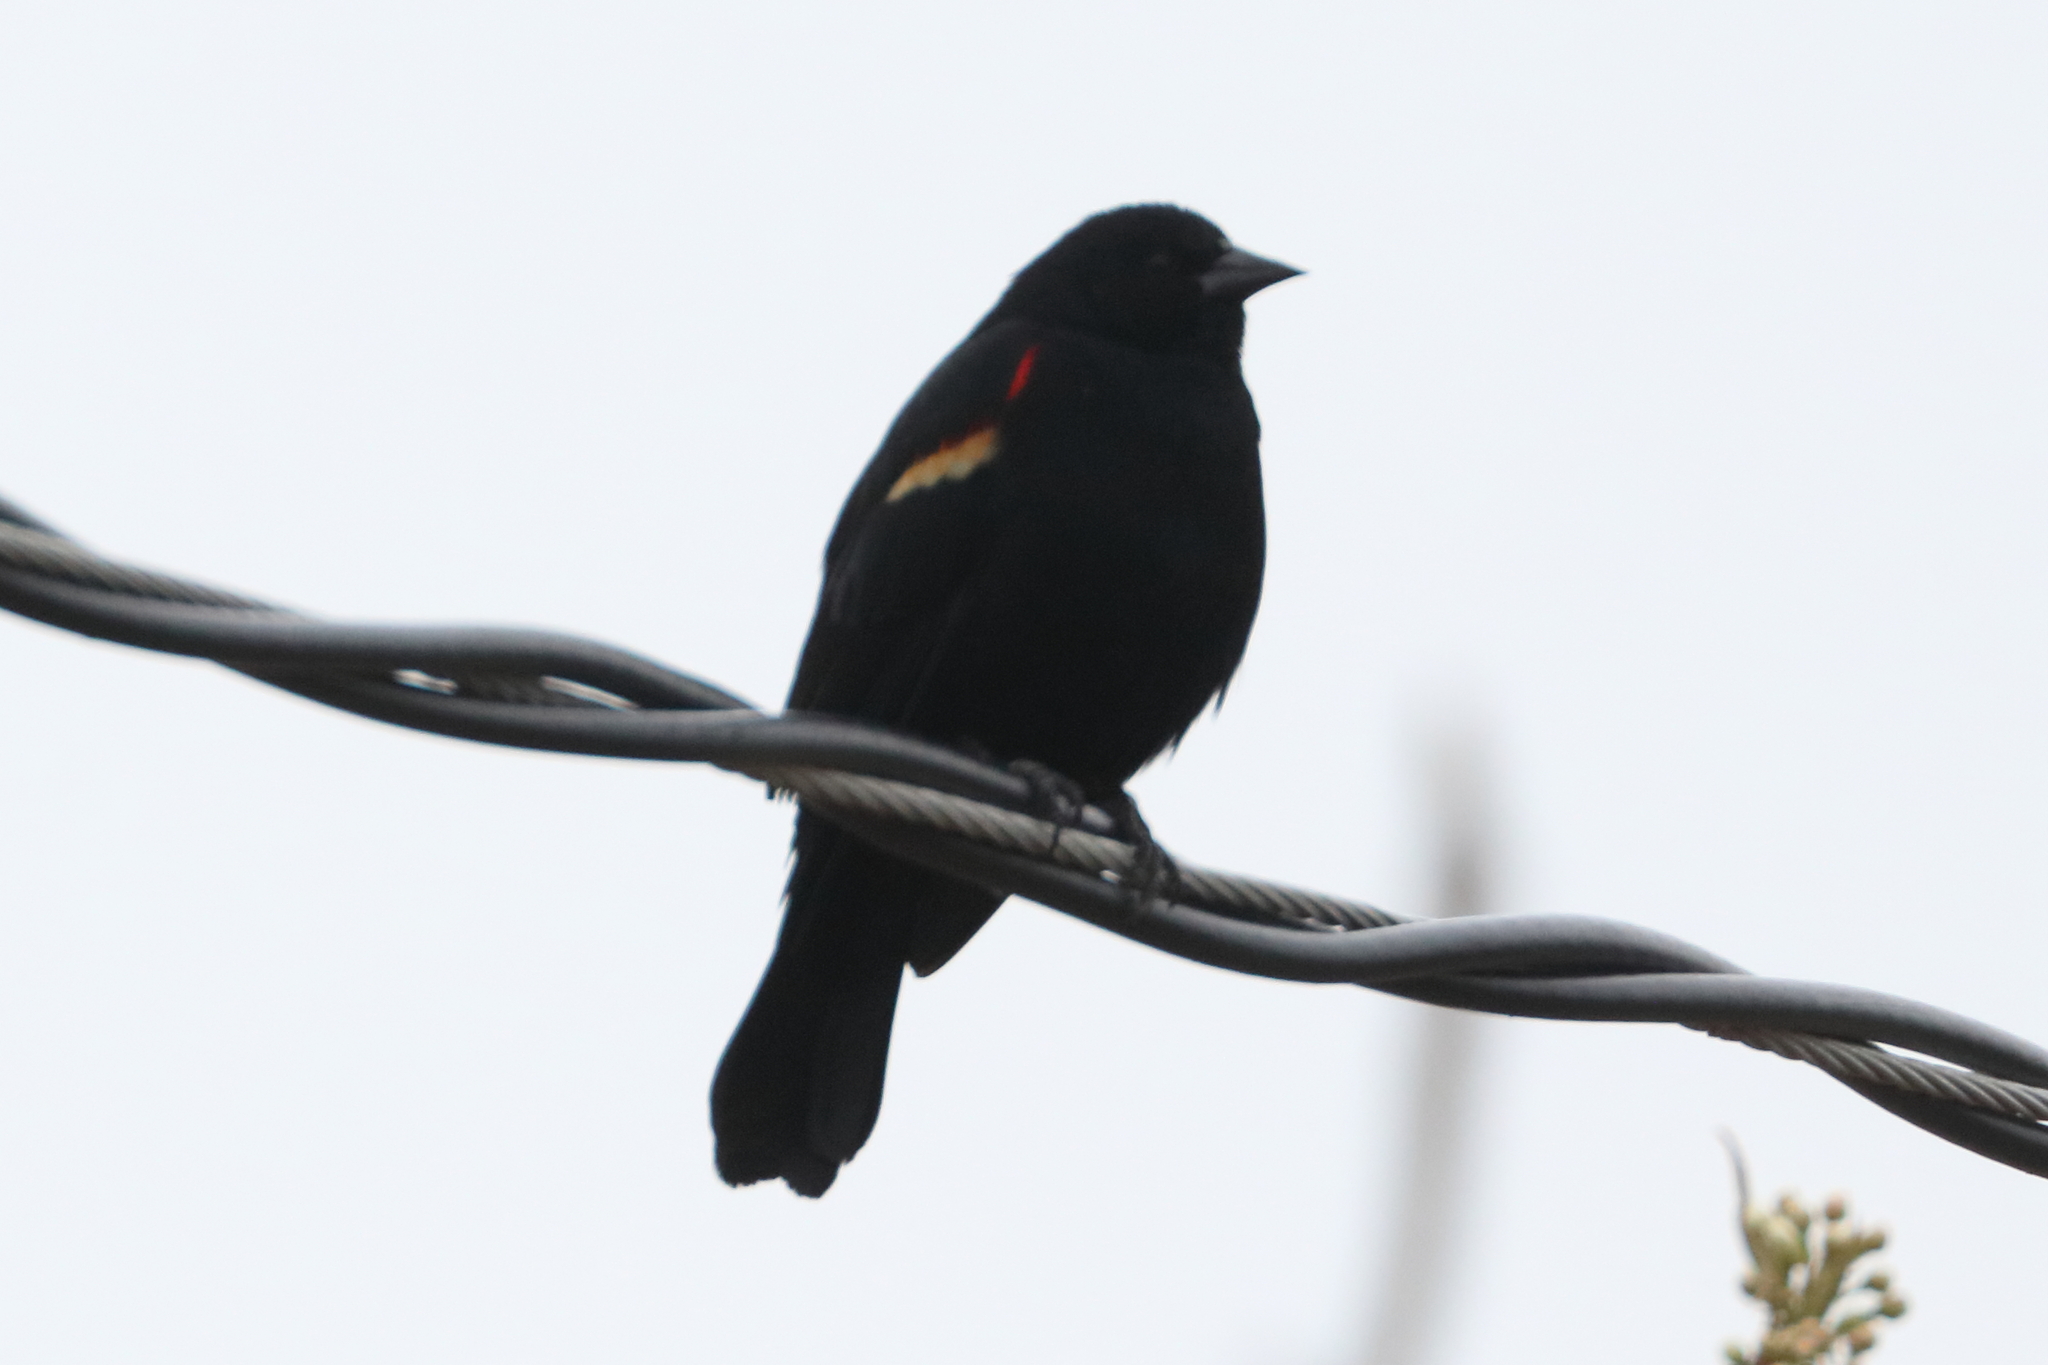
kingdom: Animalia
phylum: Chordata
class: Aves
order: Passeriformes
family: Icteridae
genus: Agelaius
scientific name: Agelaius phoeniceus
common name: Red-winged blackbird
